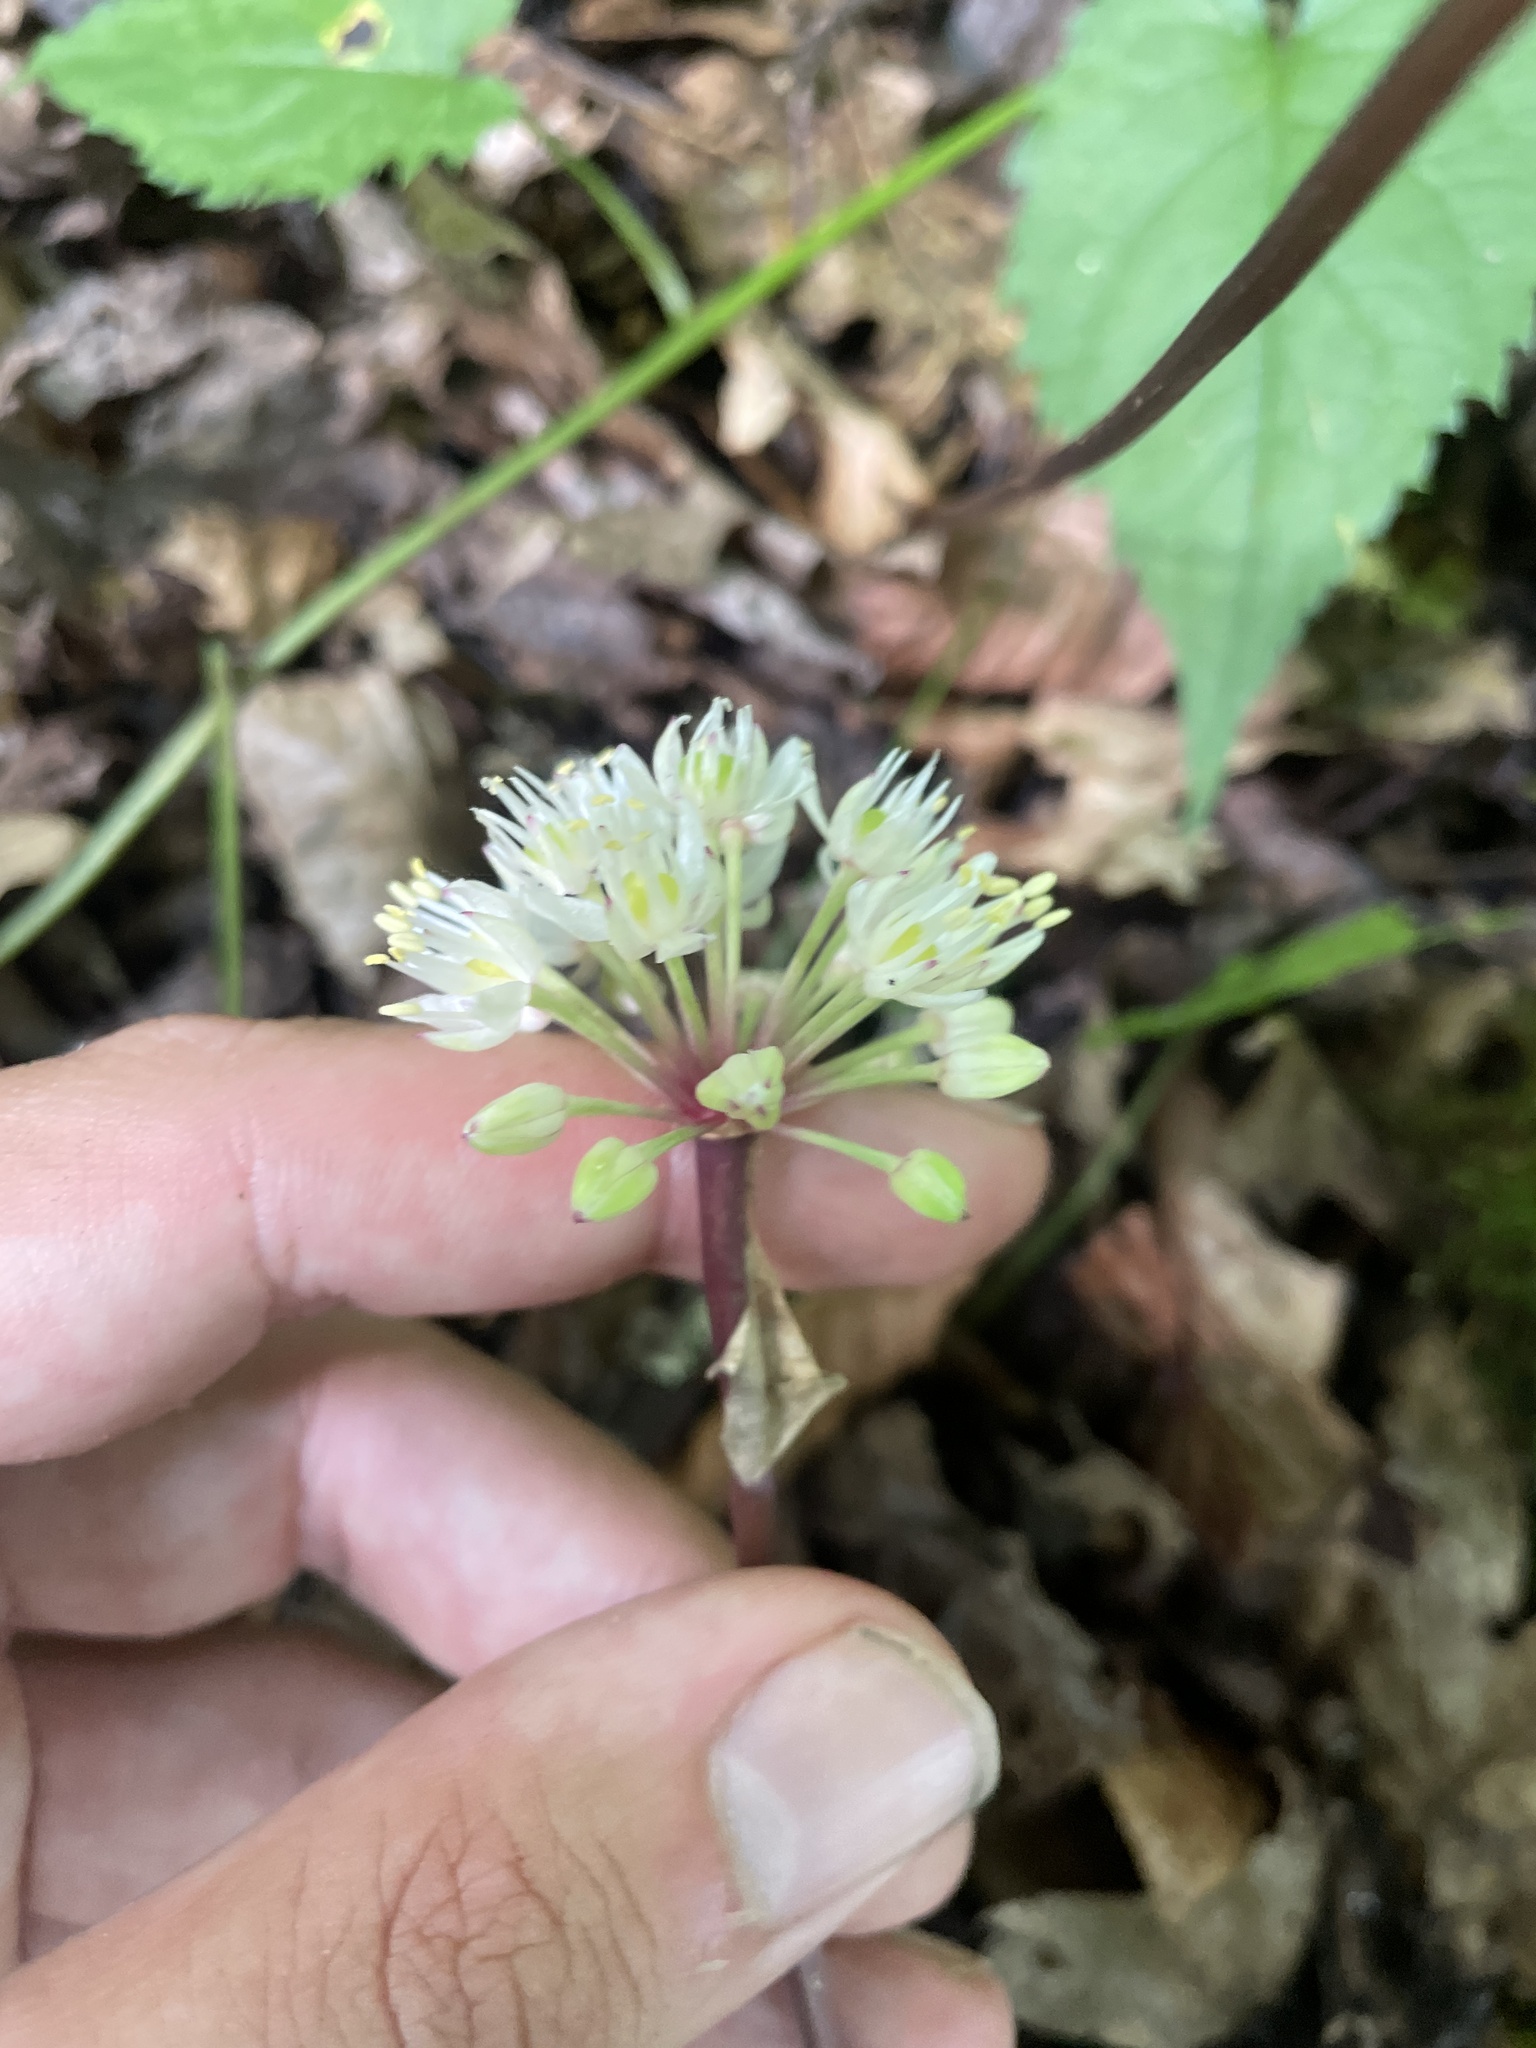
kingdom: Plantae
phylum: Tracheophyta
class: Liliopsida
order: Asparagales
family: Amaryllidaceae
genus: Allium
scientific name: Allium tricoccum
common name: Ramp
